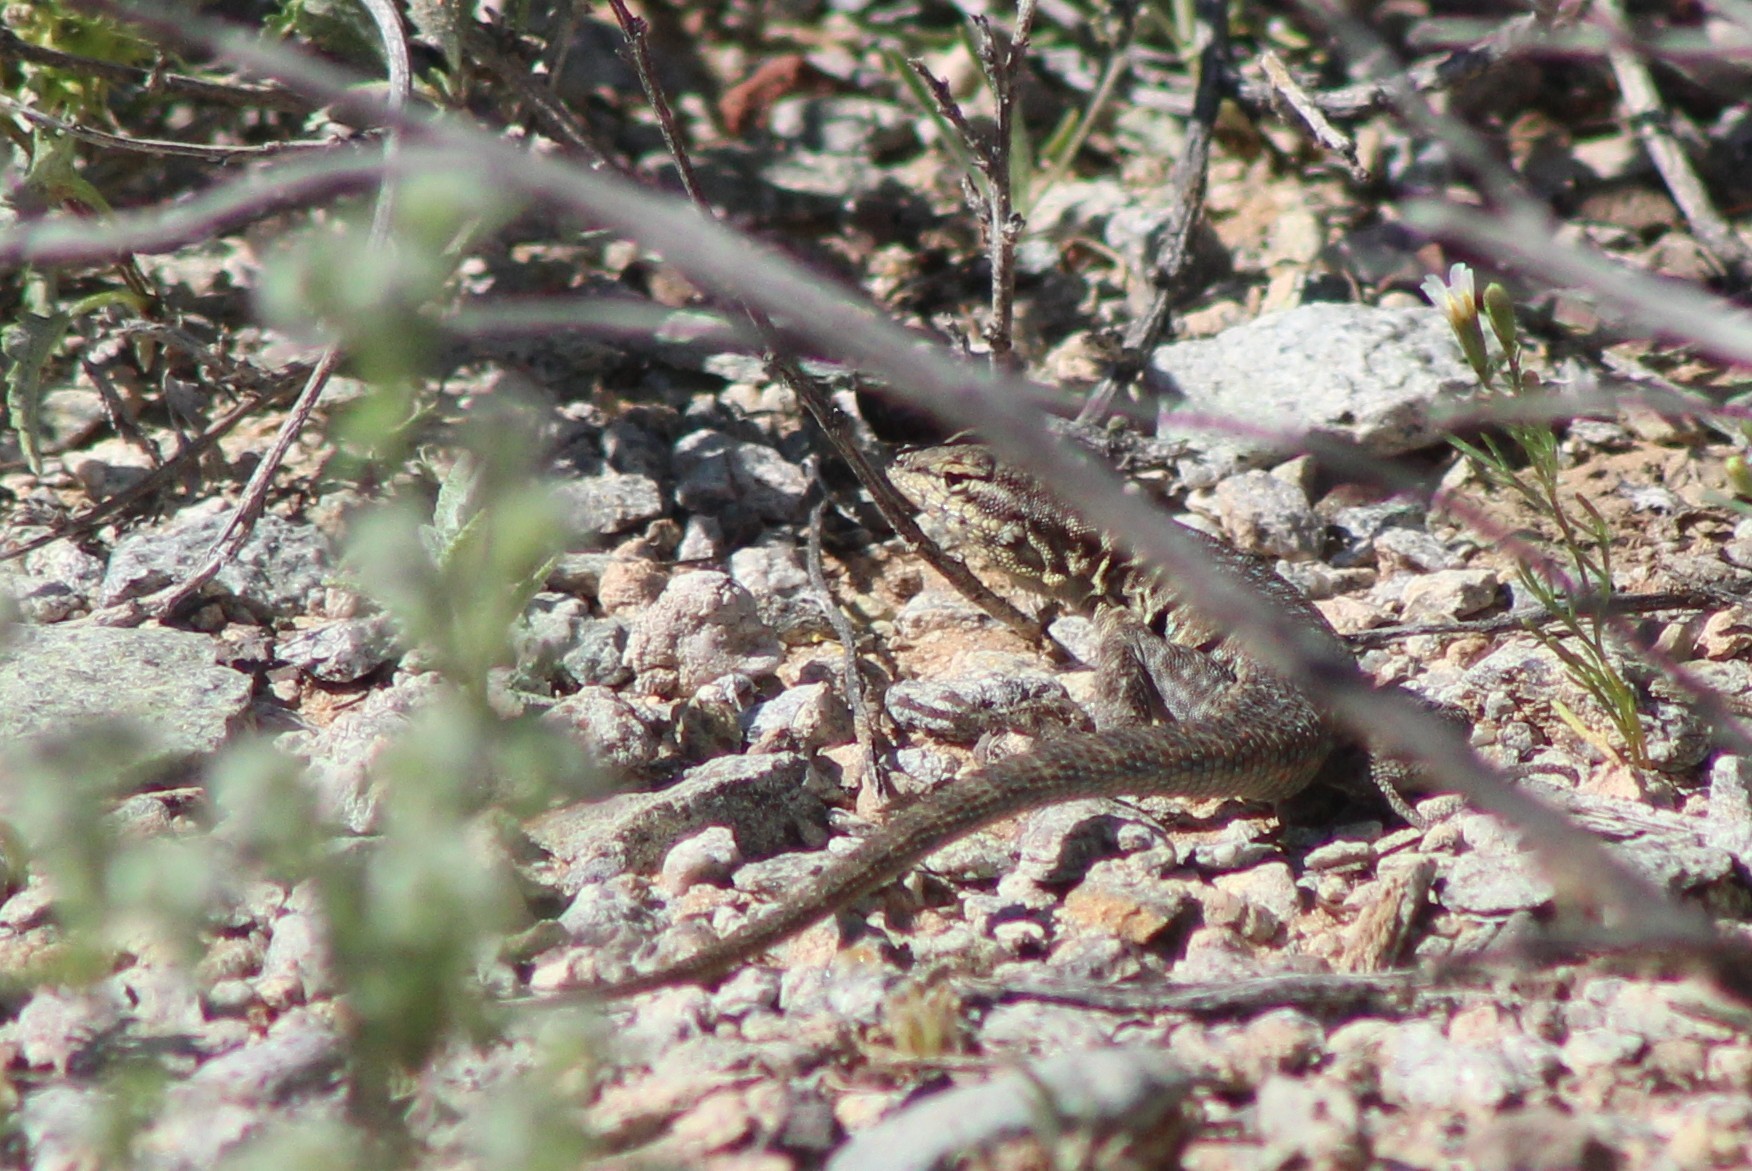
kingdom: Animalia
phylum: Chordata
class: Squamata
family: Phrynosomatidae
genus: Uta
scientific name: Uta stansburiana
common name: Side-blotched lizard
